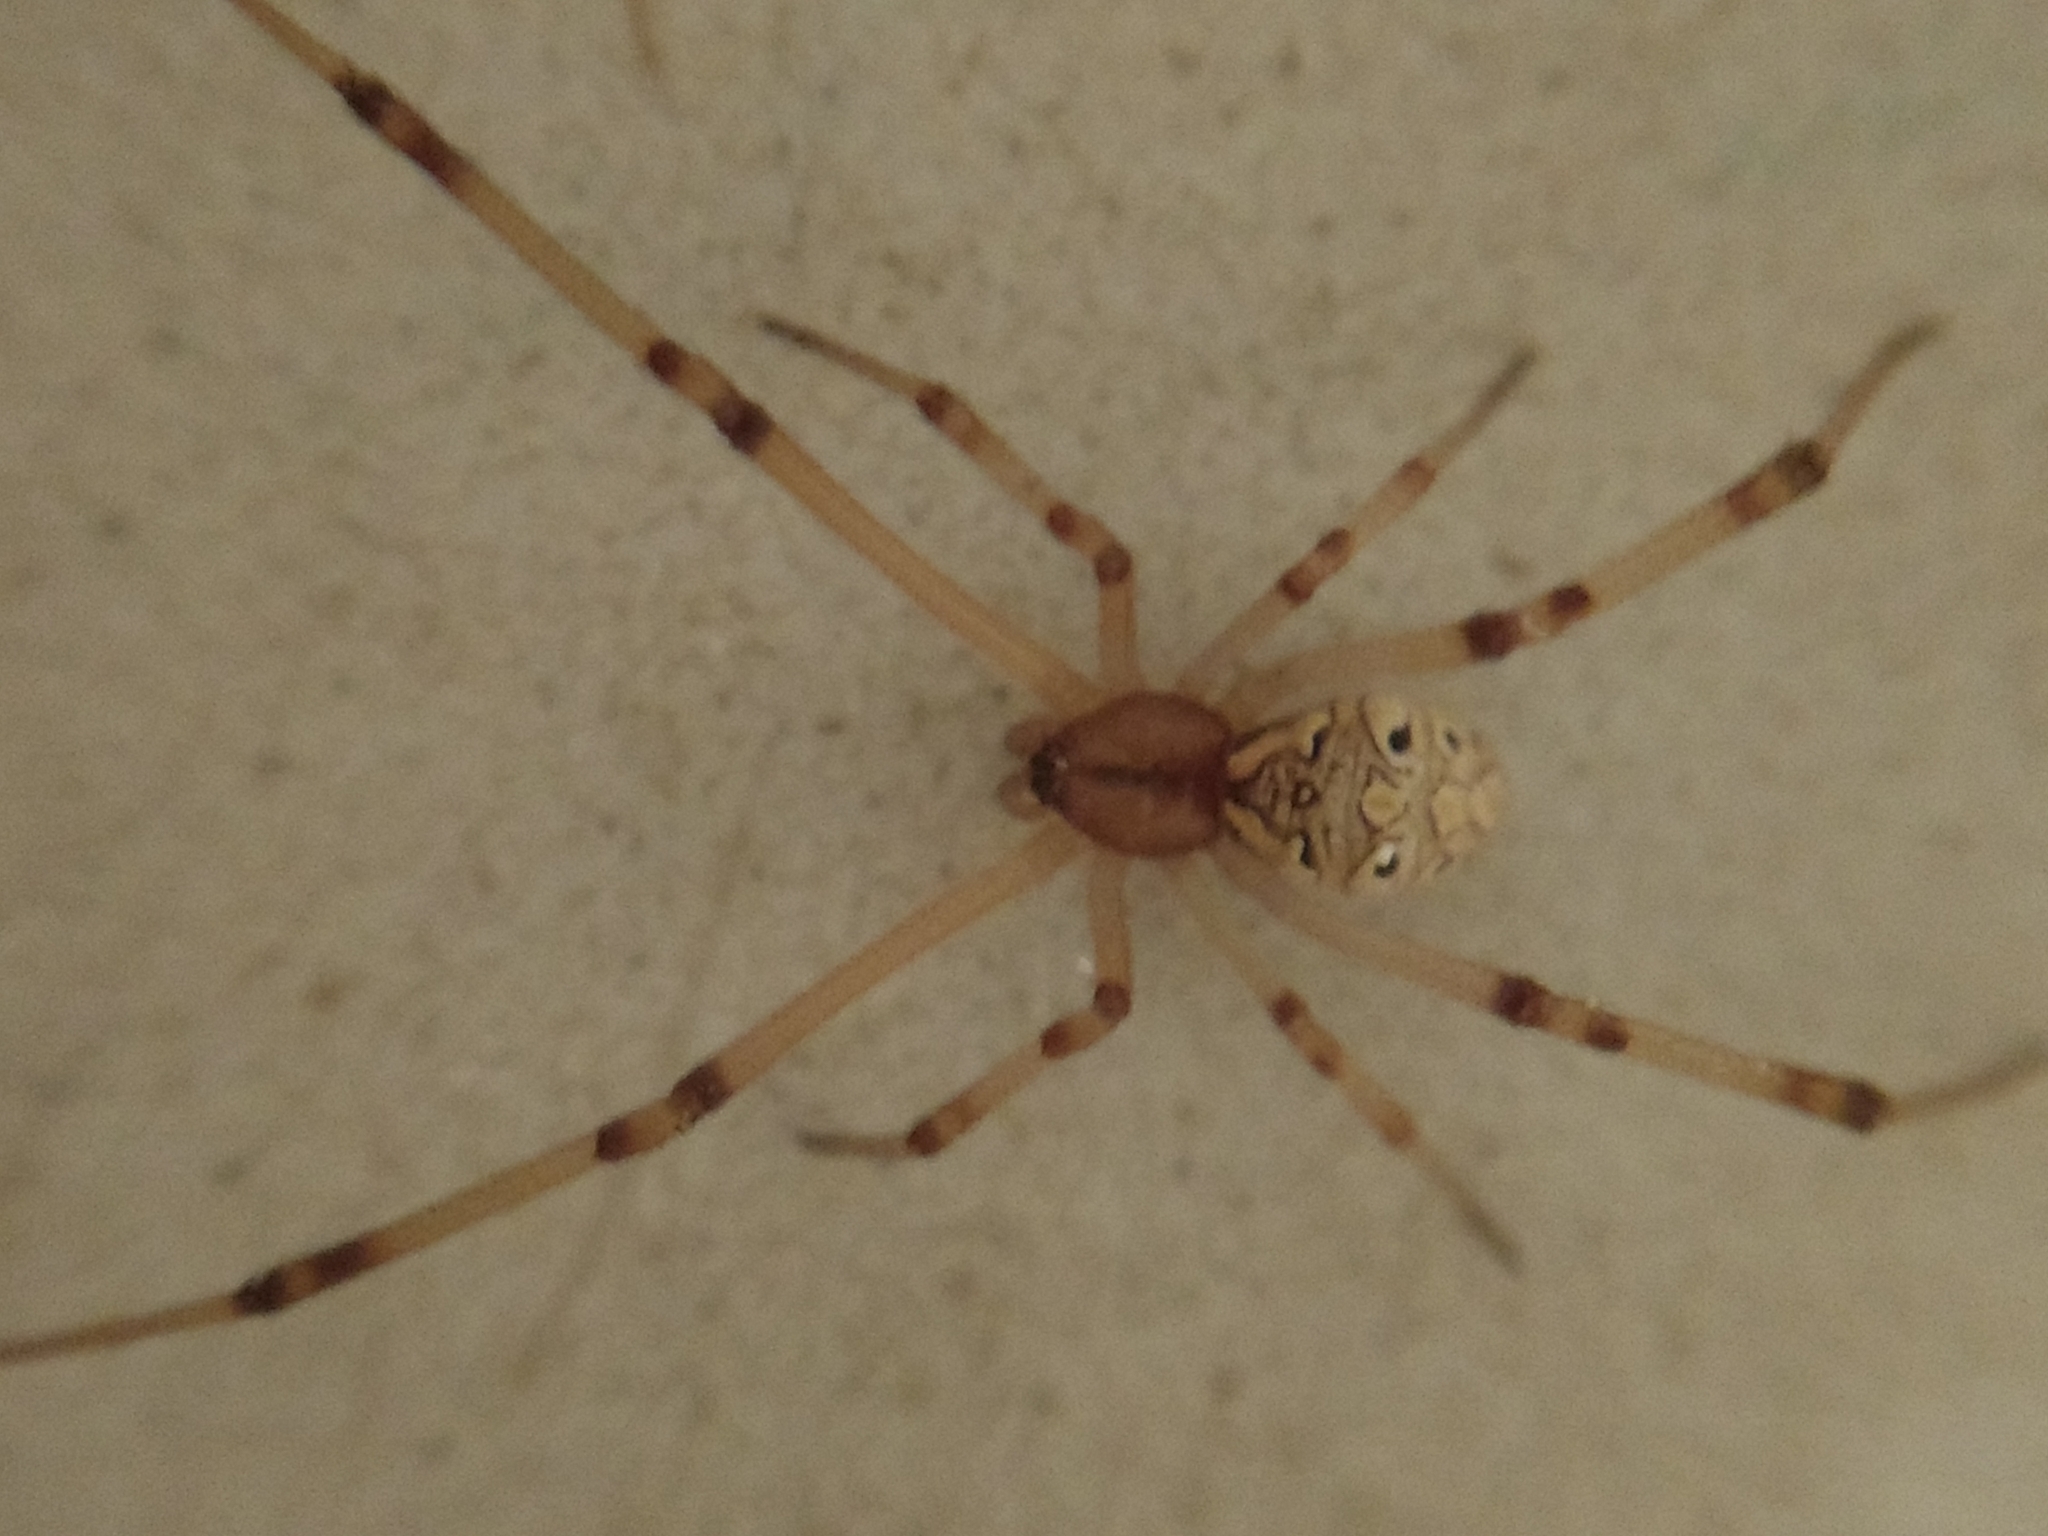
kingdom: Animalia
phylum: Arthropoda
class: Arachnida
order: Araneae
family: Theridiidae
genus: Latrodectus
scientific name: Latrodectus geometricus
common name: Brown widow spider
